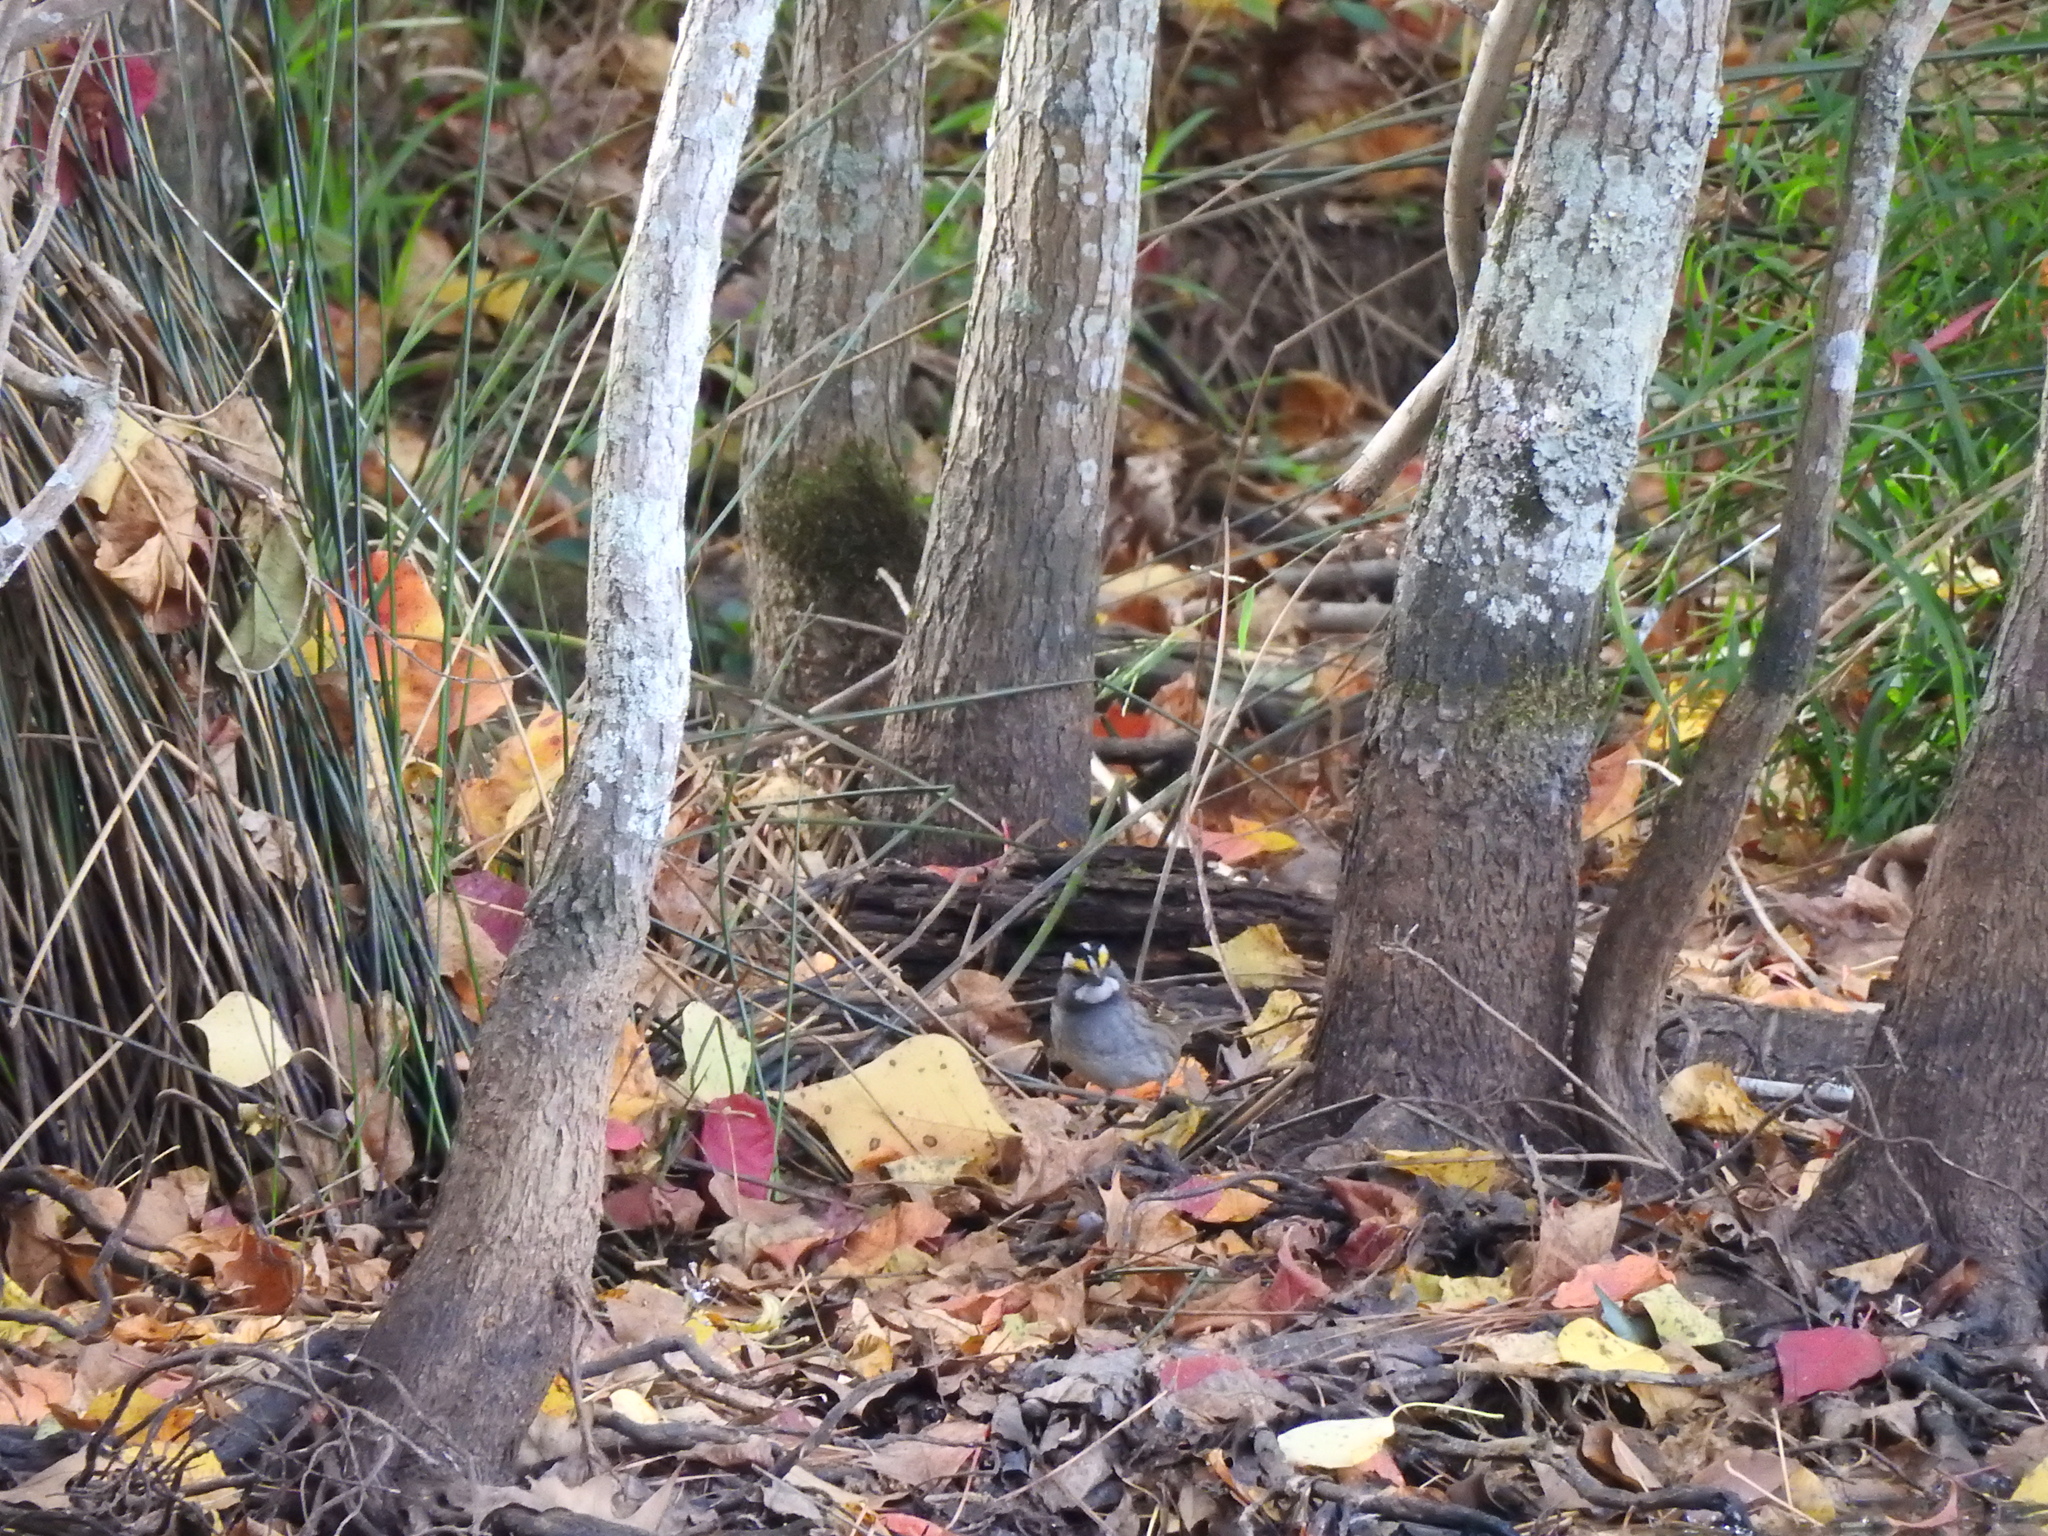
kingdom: Animalia
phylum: Chordata
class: Aves
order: Passeriformes
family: Passerellidae
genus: Zonotrichia
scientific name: Zonotrichia albicollis
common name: White-throated sparrow
